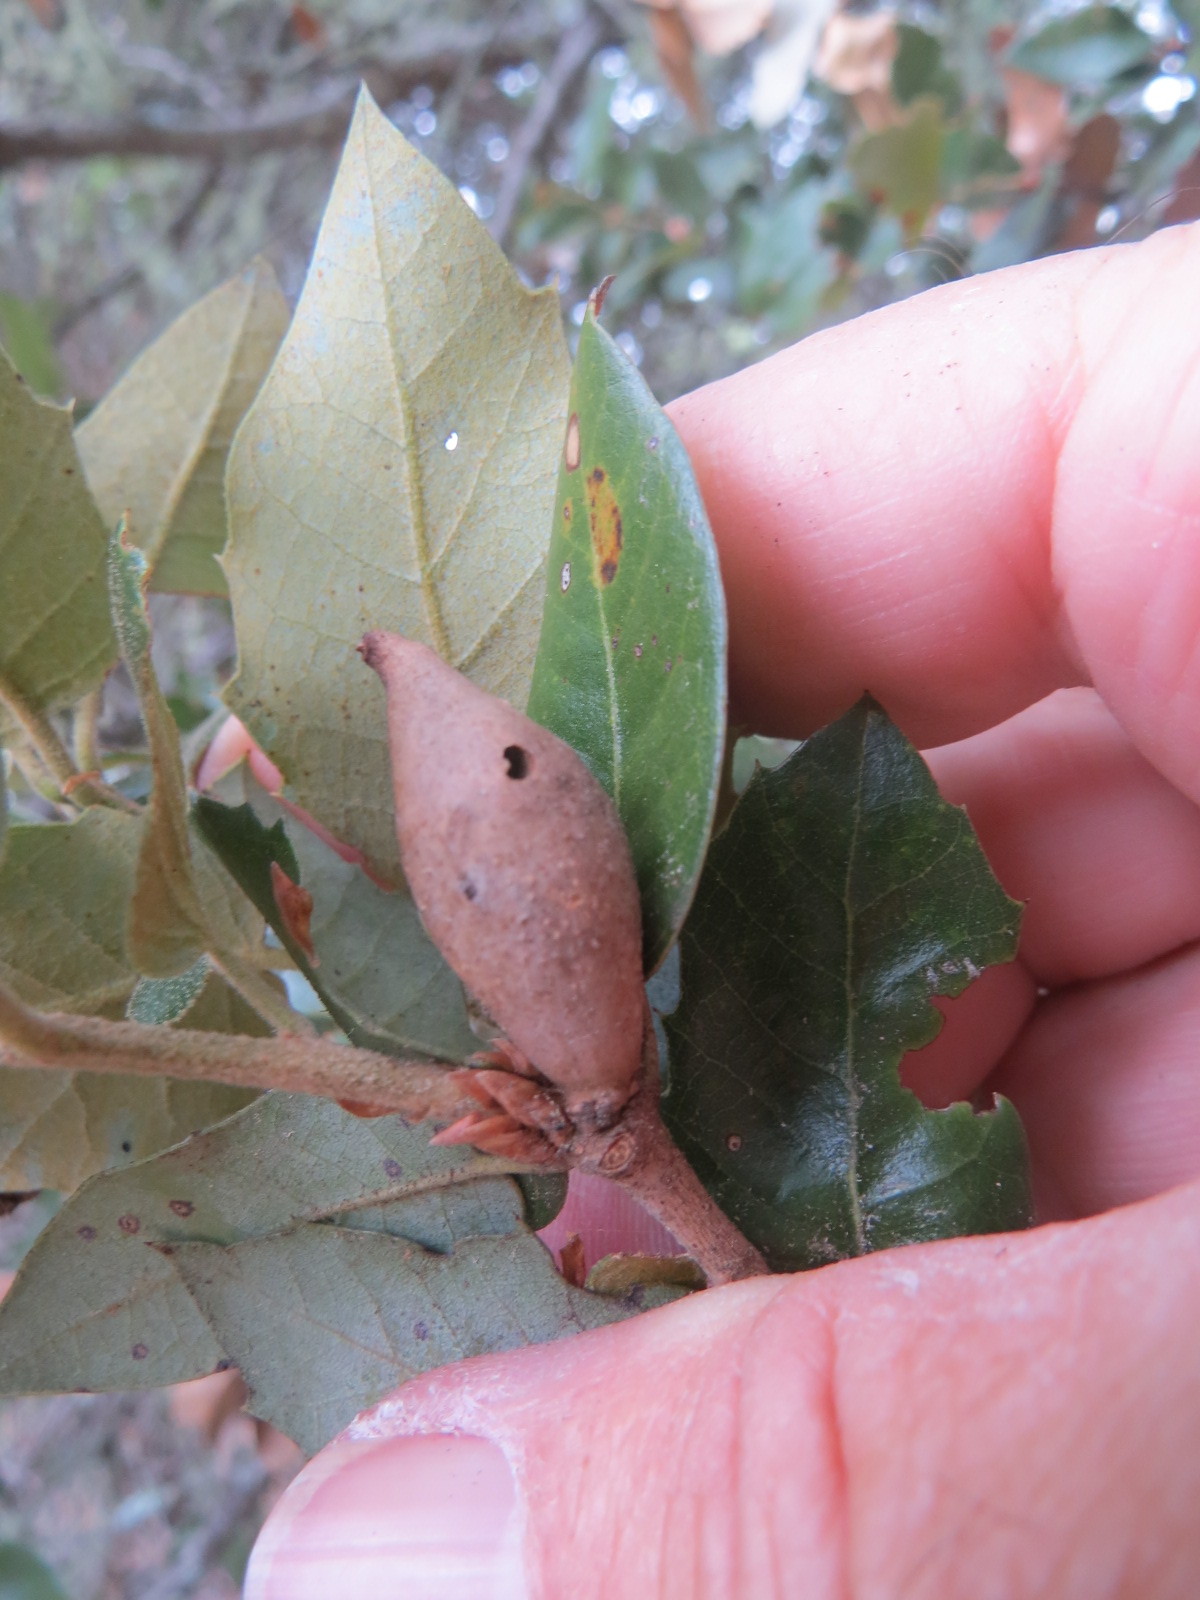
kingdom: Animalia
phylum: Arthropoda
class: Insecta
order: Hymenoptera
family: Cynipidae
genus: Heteroecus
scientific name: Heteroecus pacificus
